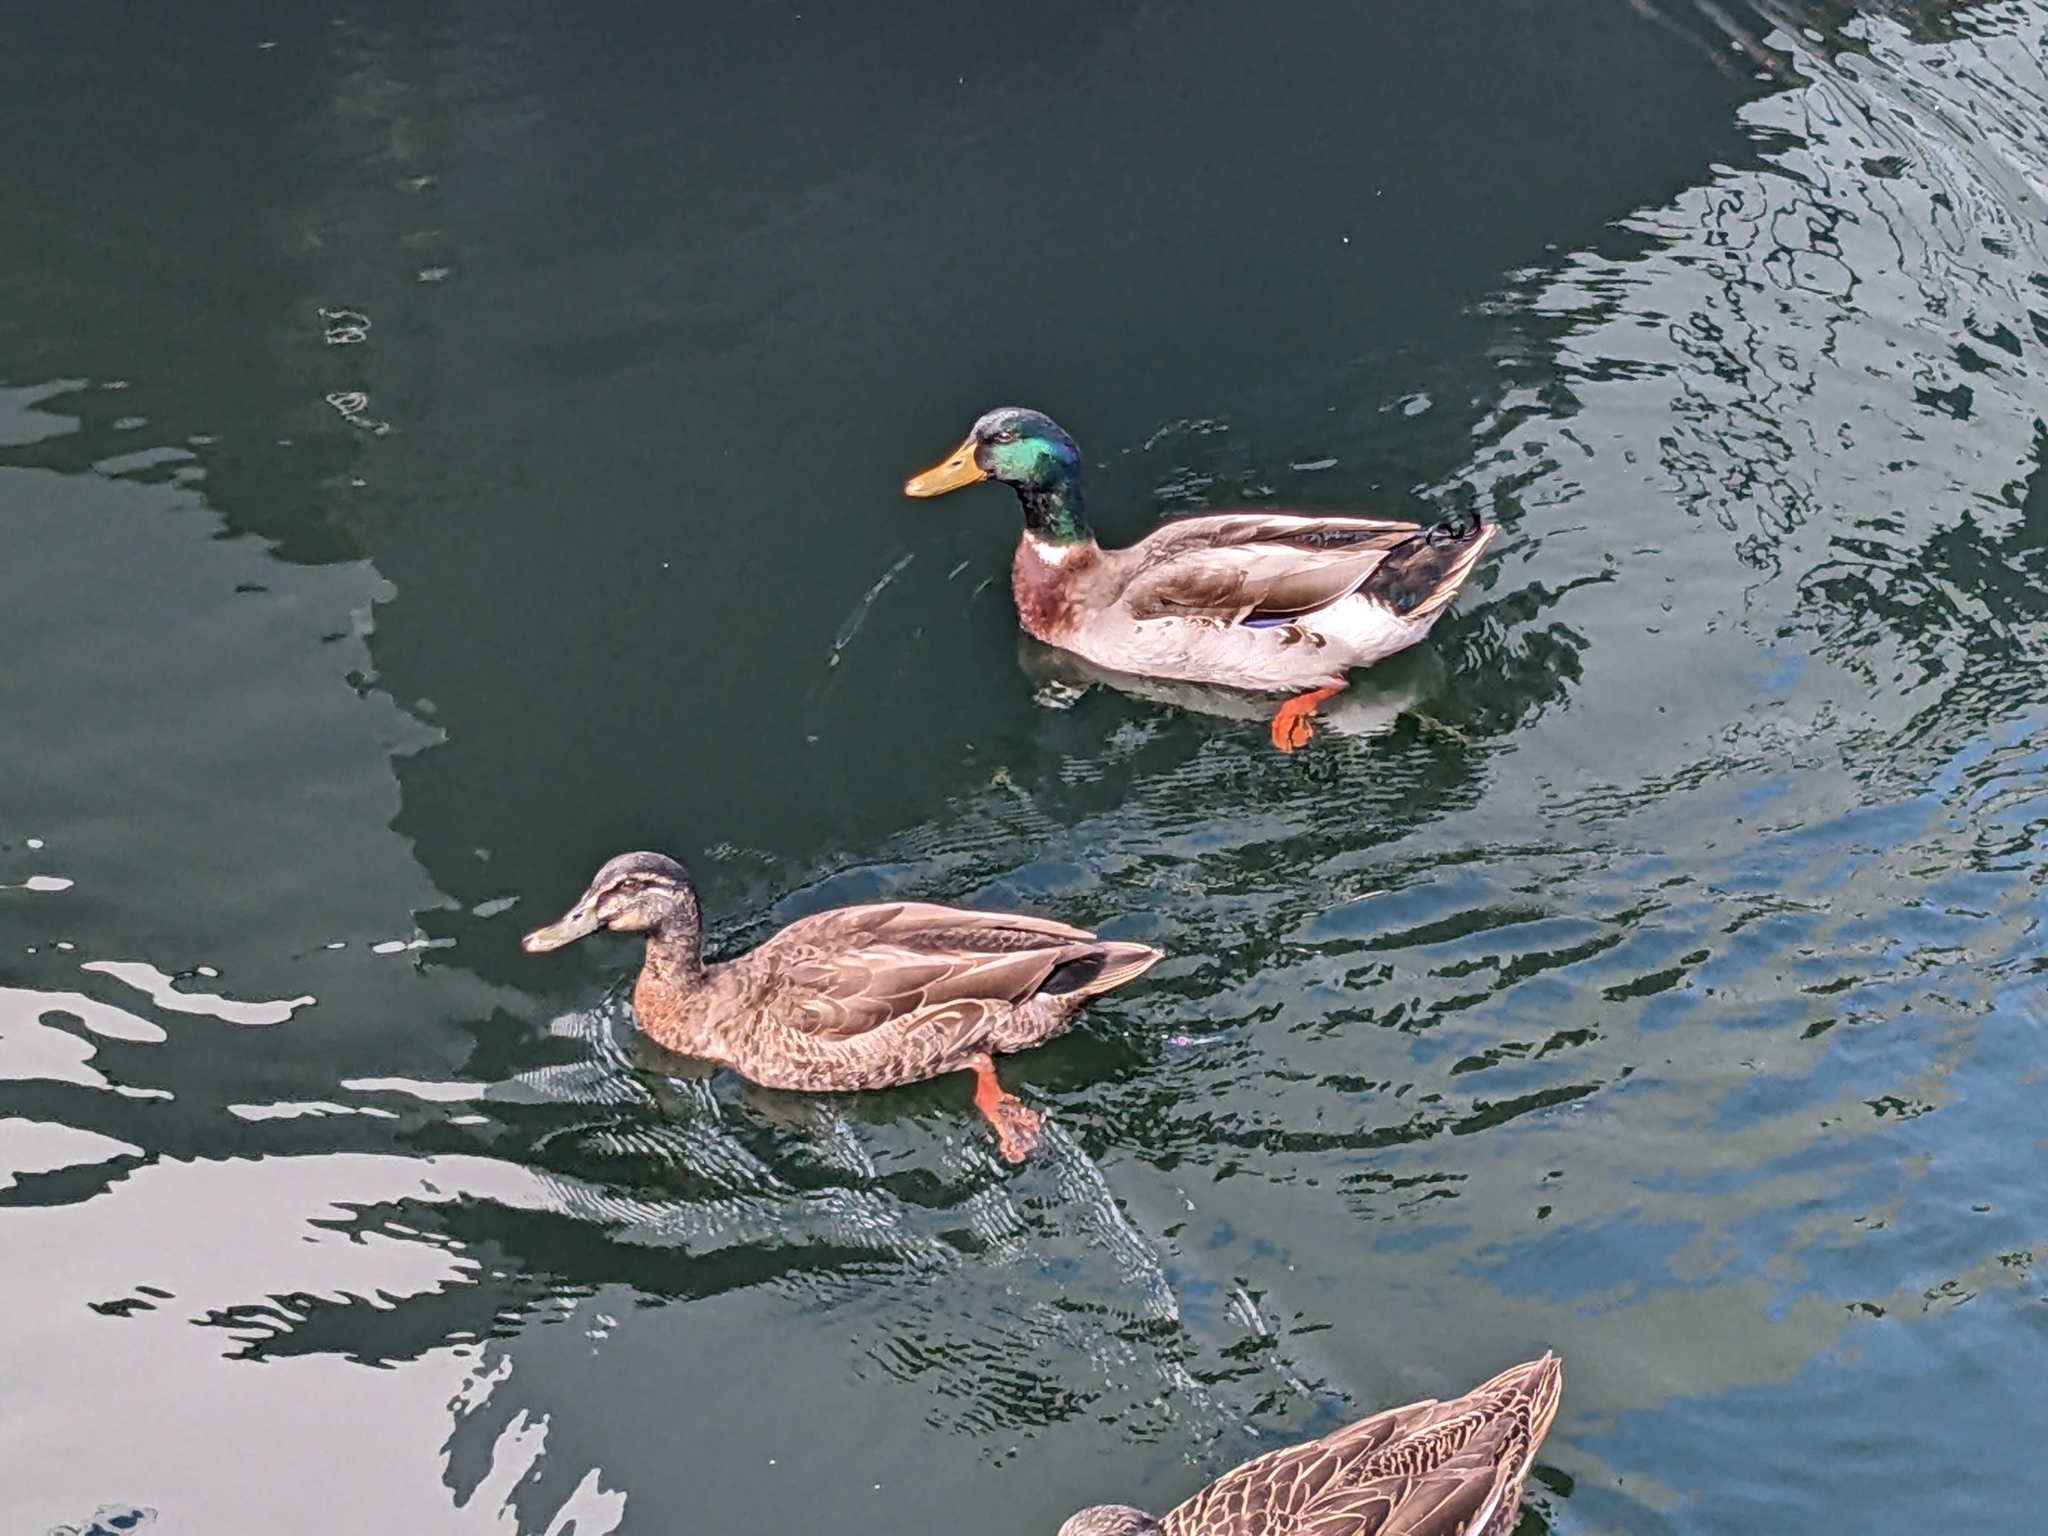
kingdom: Animalia
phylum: Chordata
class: Aves
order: Anseriformes
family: Anatidae
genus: Anas
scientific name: Anas platyrhynchos
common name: Mallard
